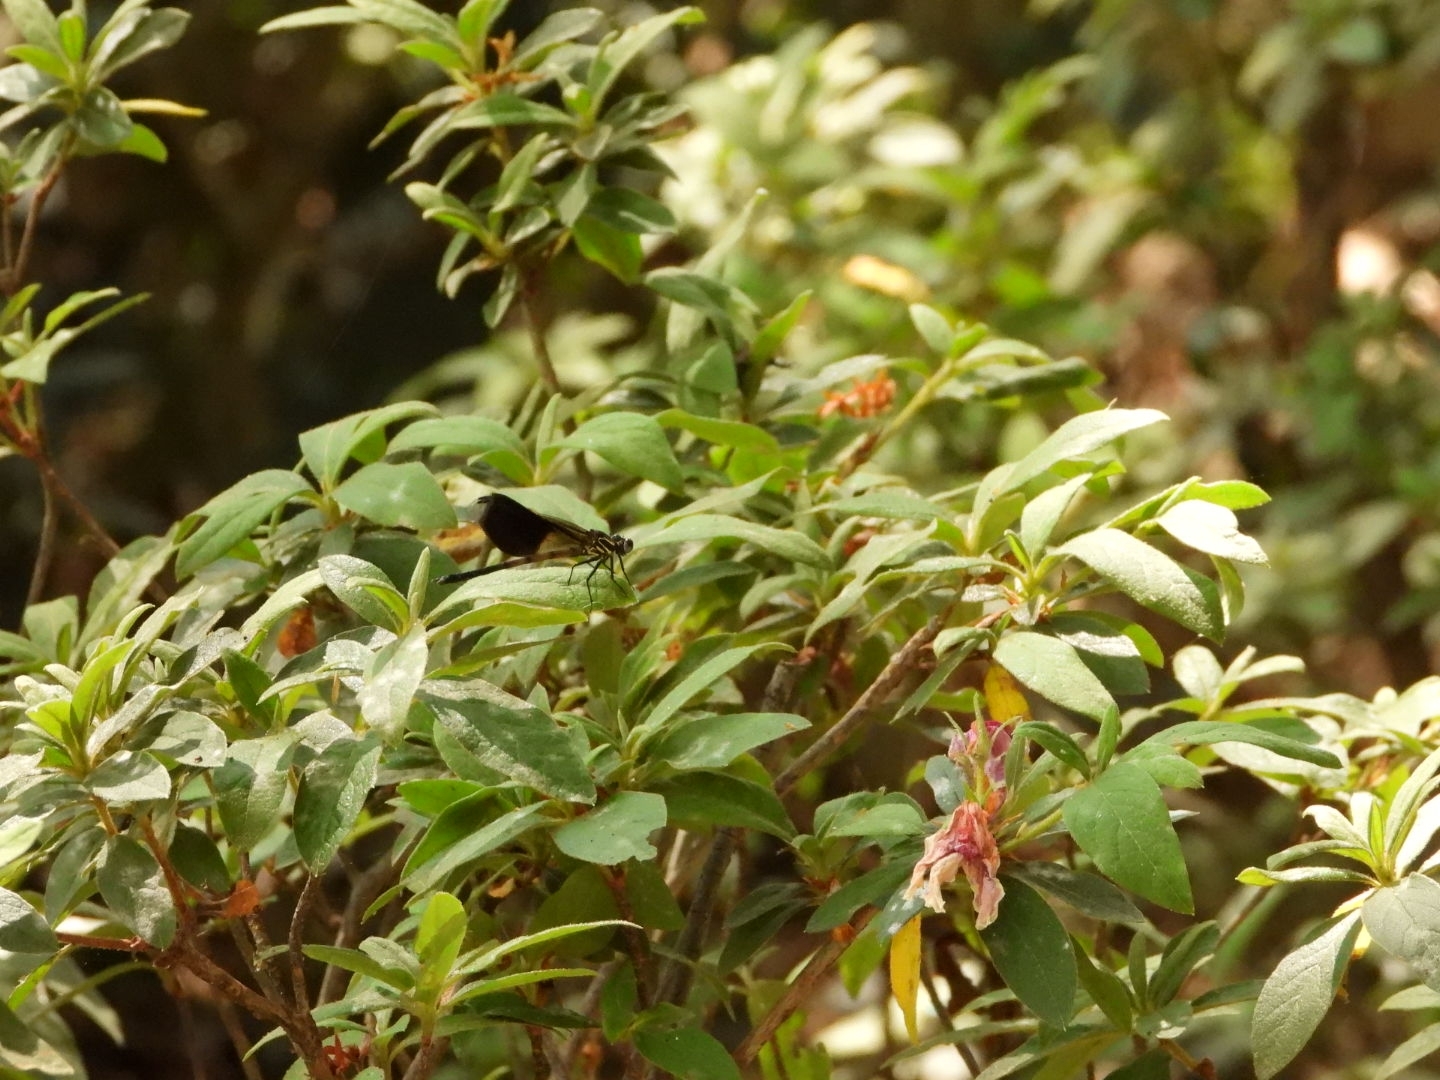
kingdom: Animalia
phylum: Arthropoda
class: Insecta
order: Odonata
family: Euphaeidae
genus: Euphaea
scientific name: Euphaea formosa
